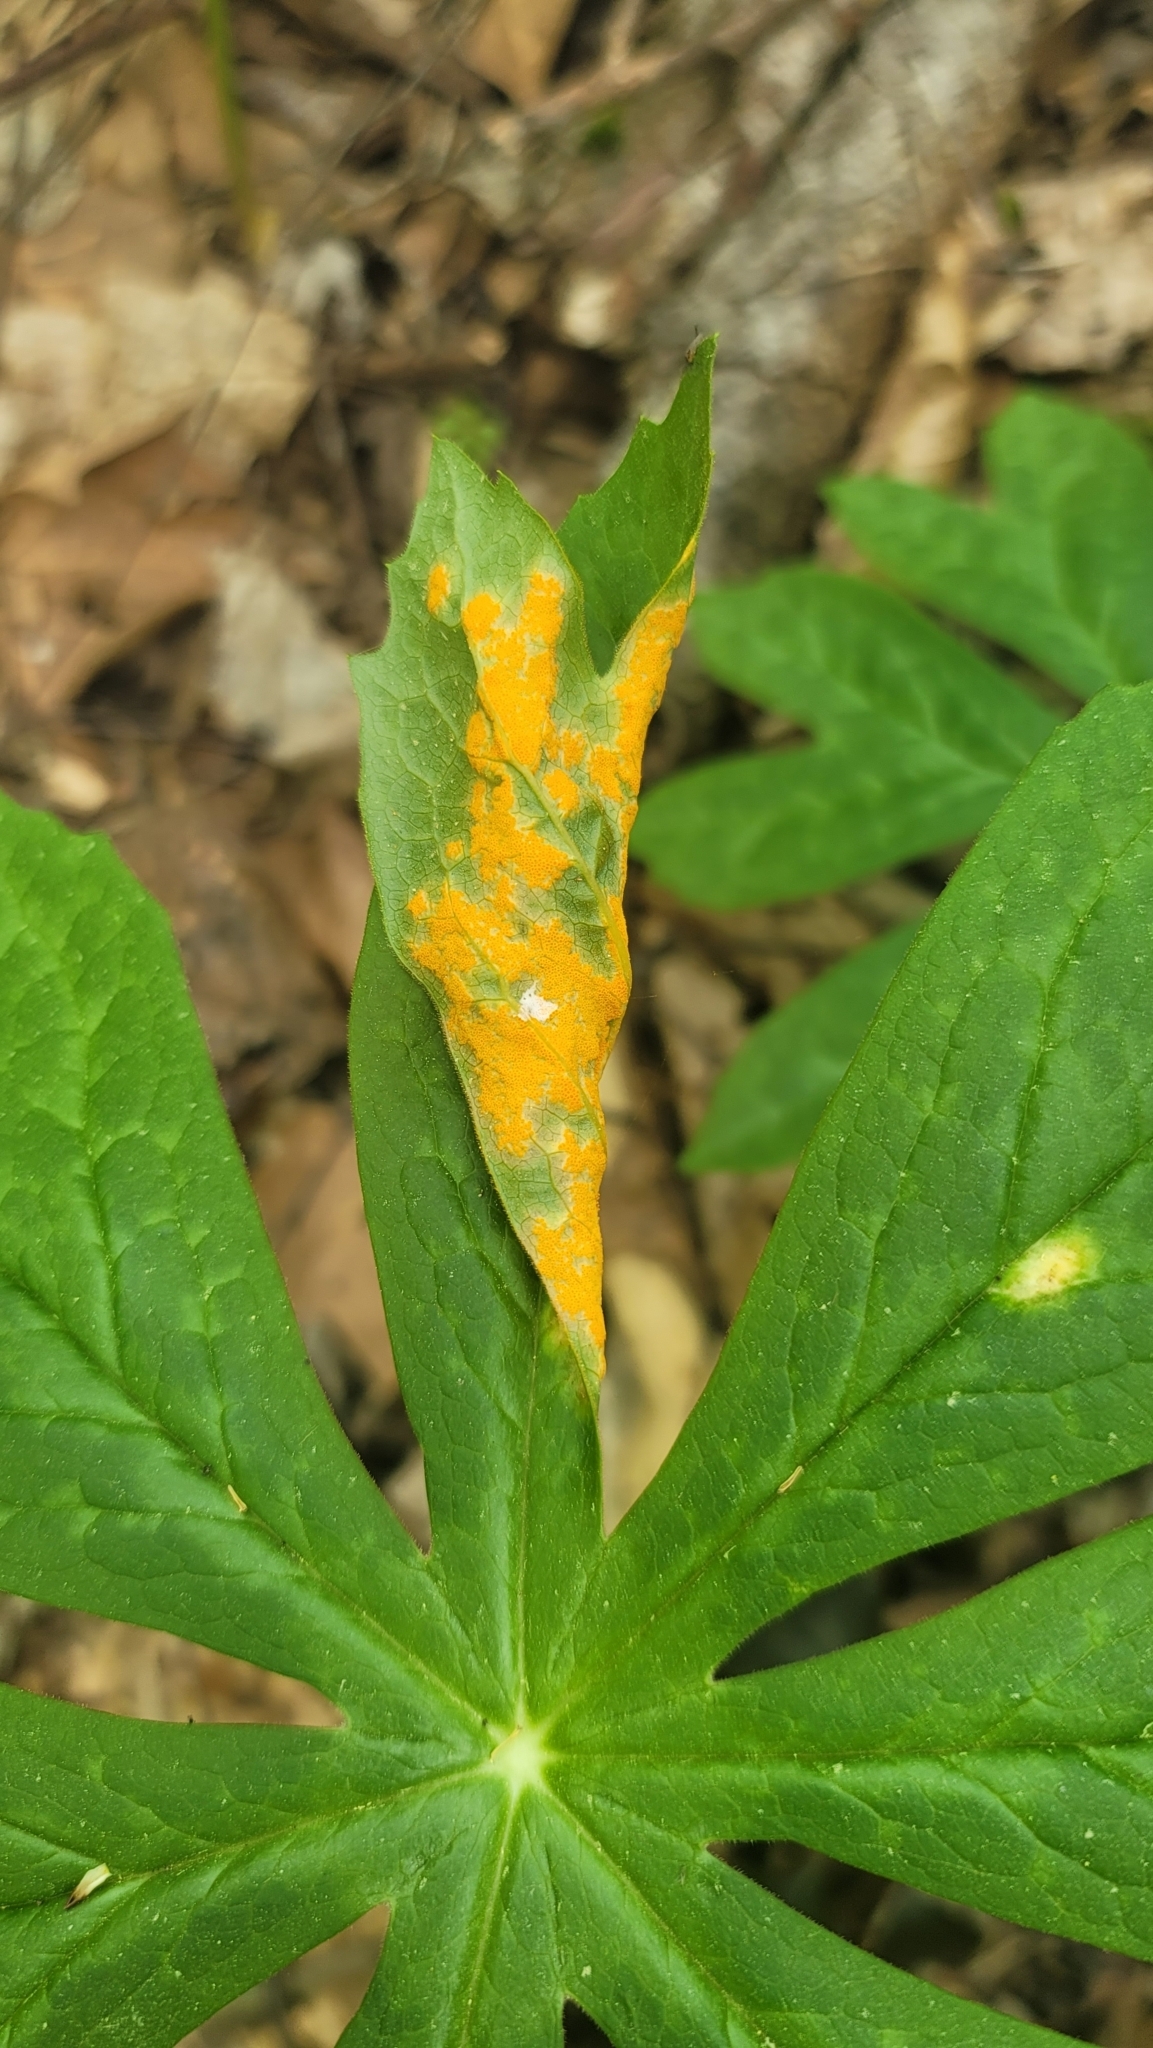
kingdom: Fungi
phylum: Basidiomycota
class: Pucciniomycetes
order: Pucciniales
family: Pucciniaceae
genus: Puccinia
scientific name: Puccinia podophylli
